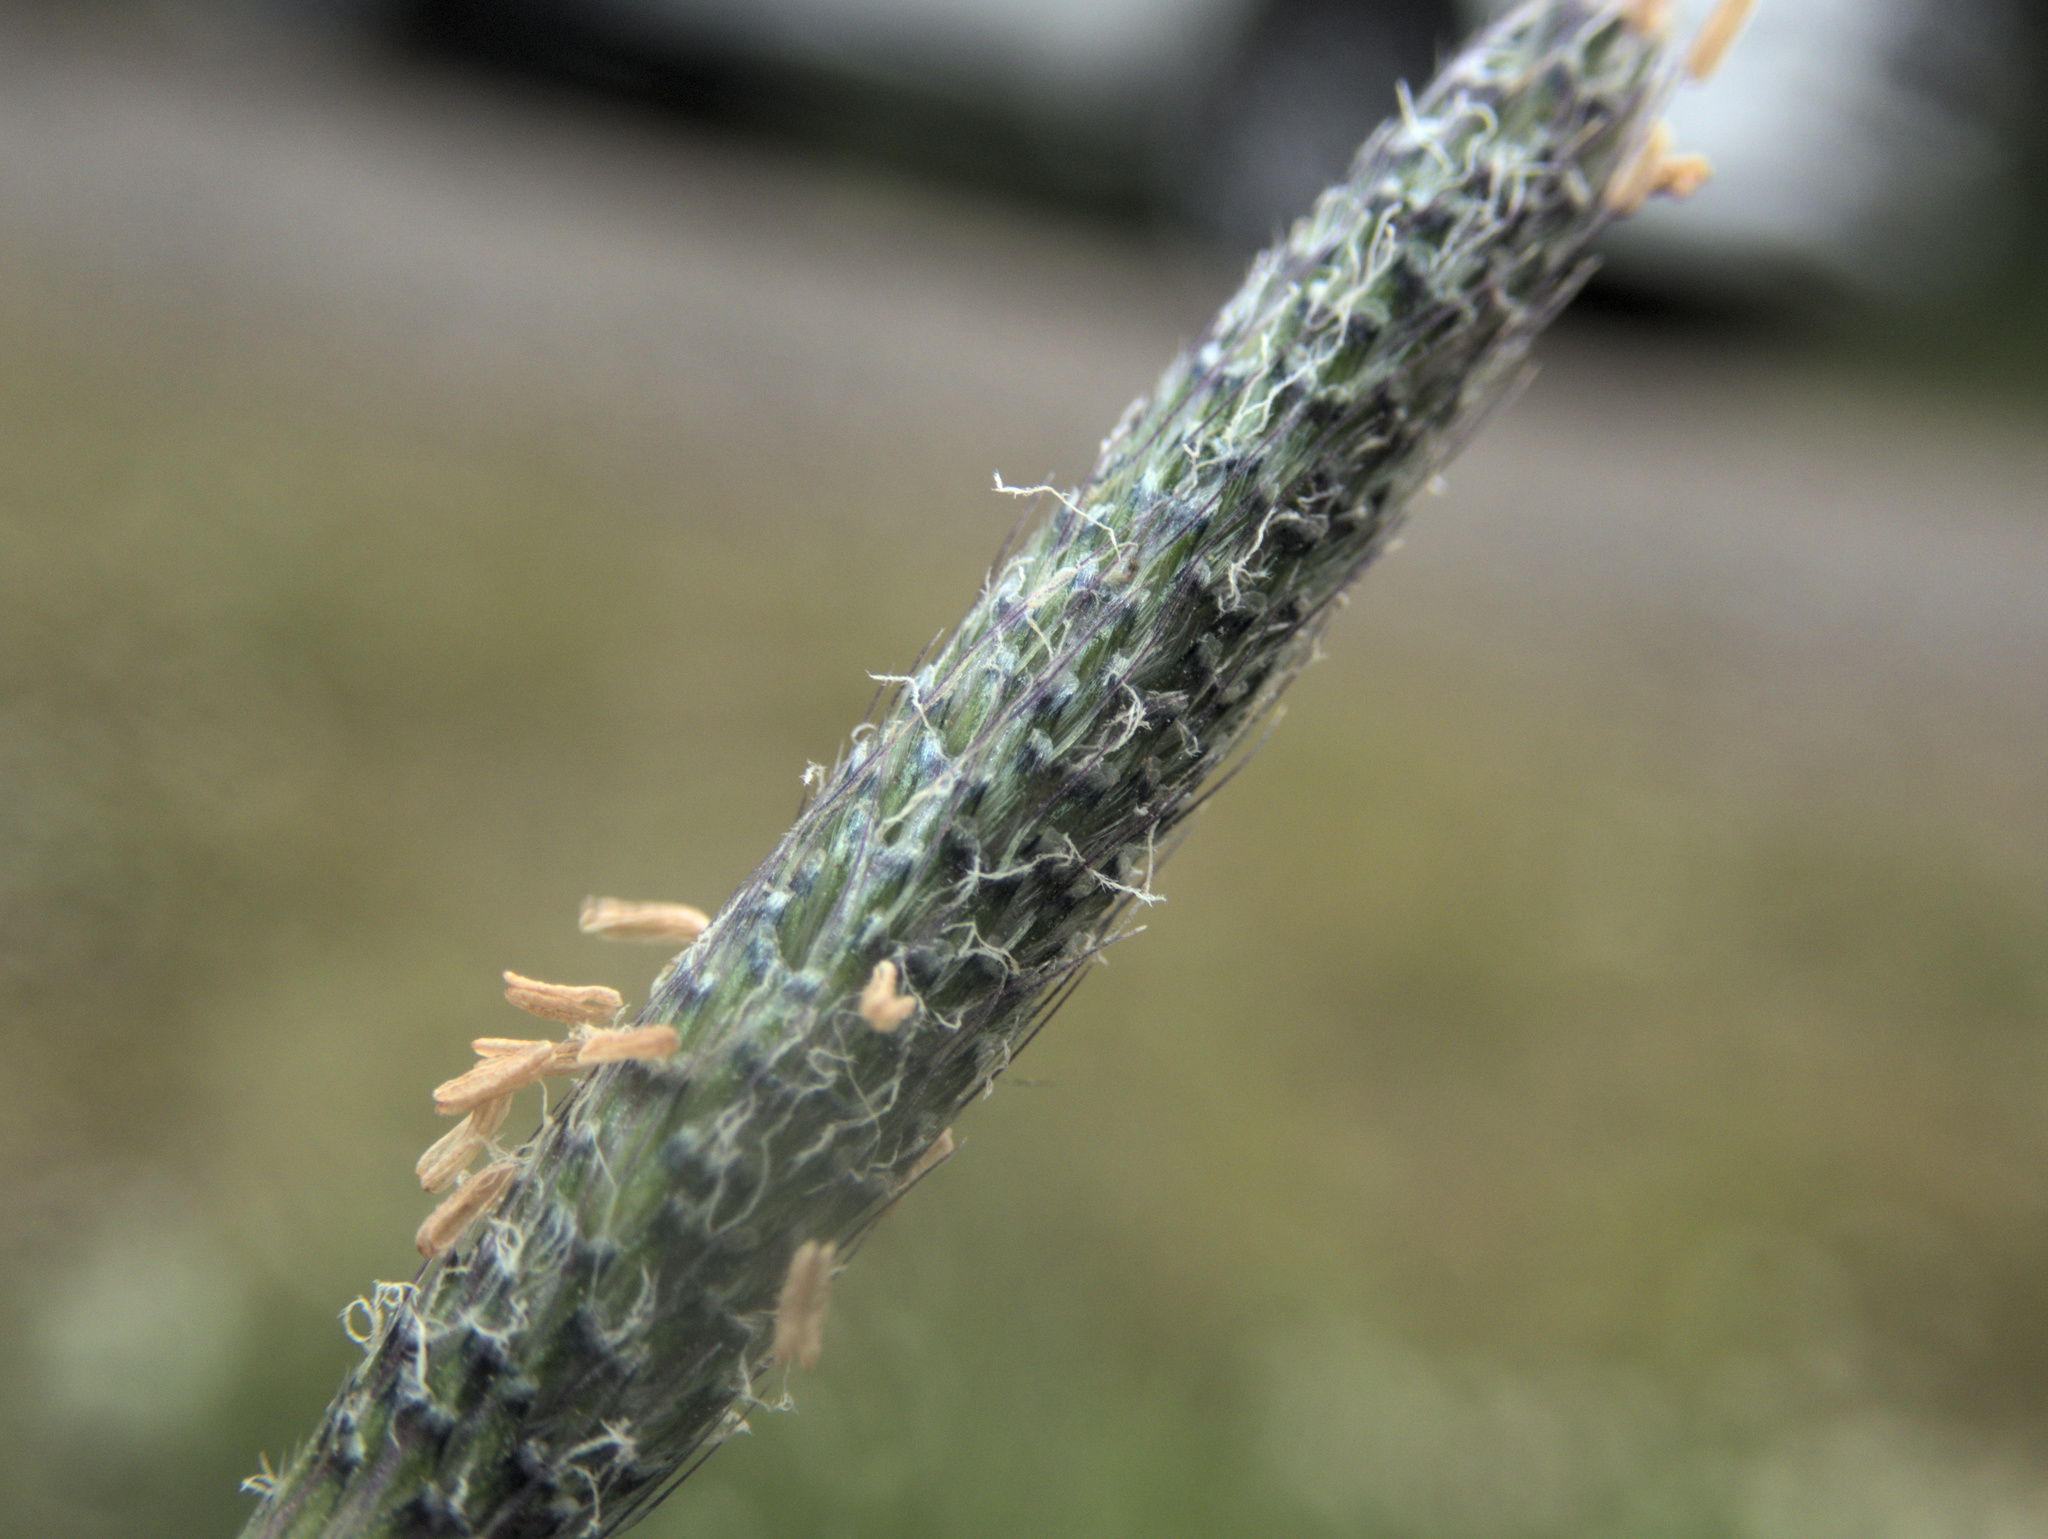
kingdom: Plantae
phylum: Tracheophyta
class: Liliopsida
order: Poales
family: Poaceae
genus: Alopecurus
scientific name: Alopecurus geniculatus
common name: Water foxtail
